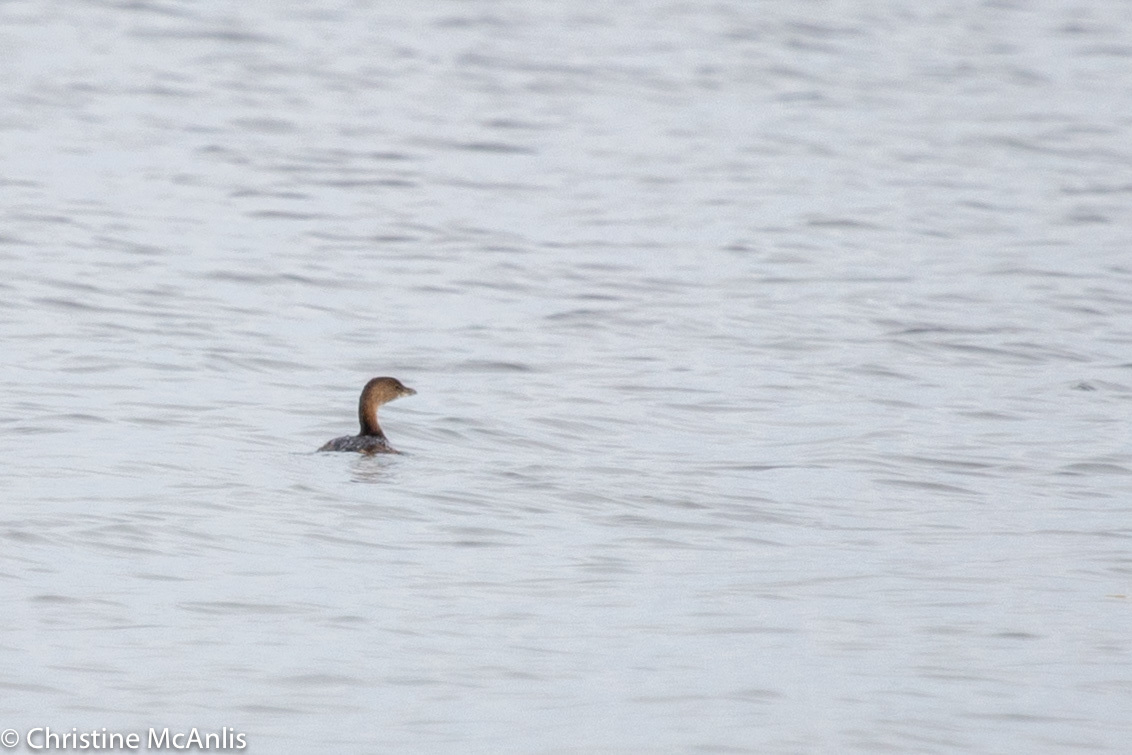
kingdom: Animalia
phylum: Chordata
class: Aves
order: Podicipediformes
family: Podicipedidae
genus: Podilymbus
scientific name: Podilymbus podiceps
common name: Pied-billed grebe
